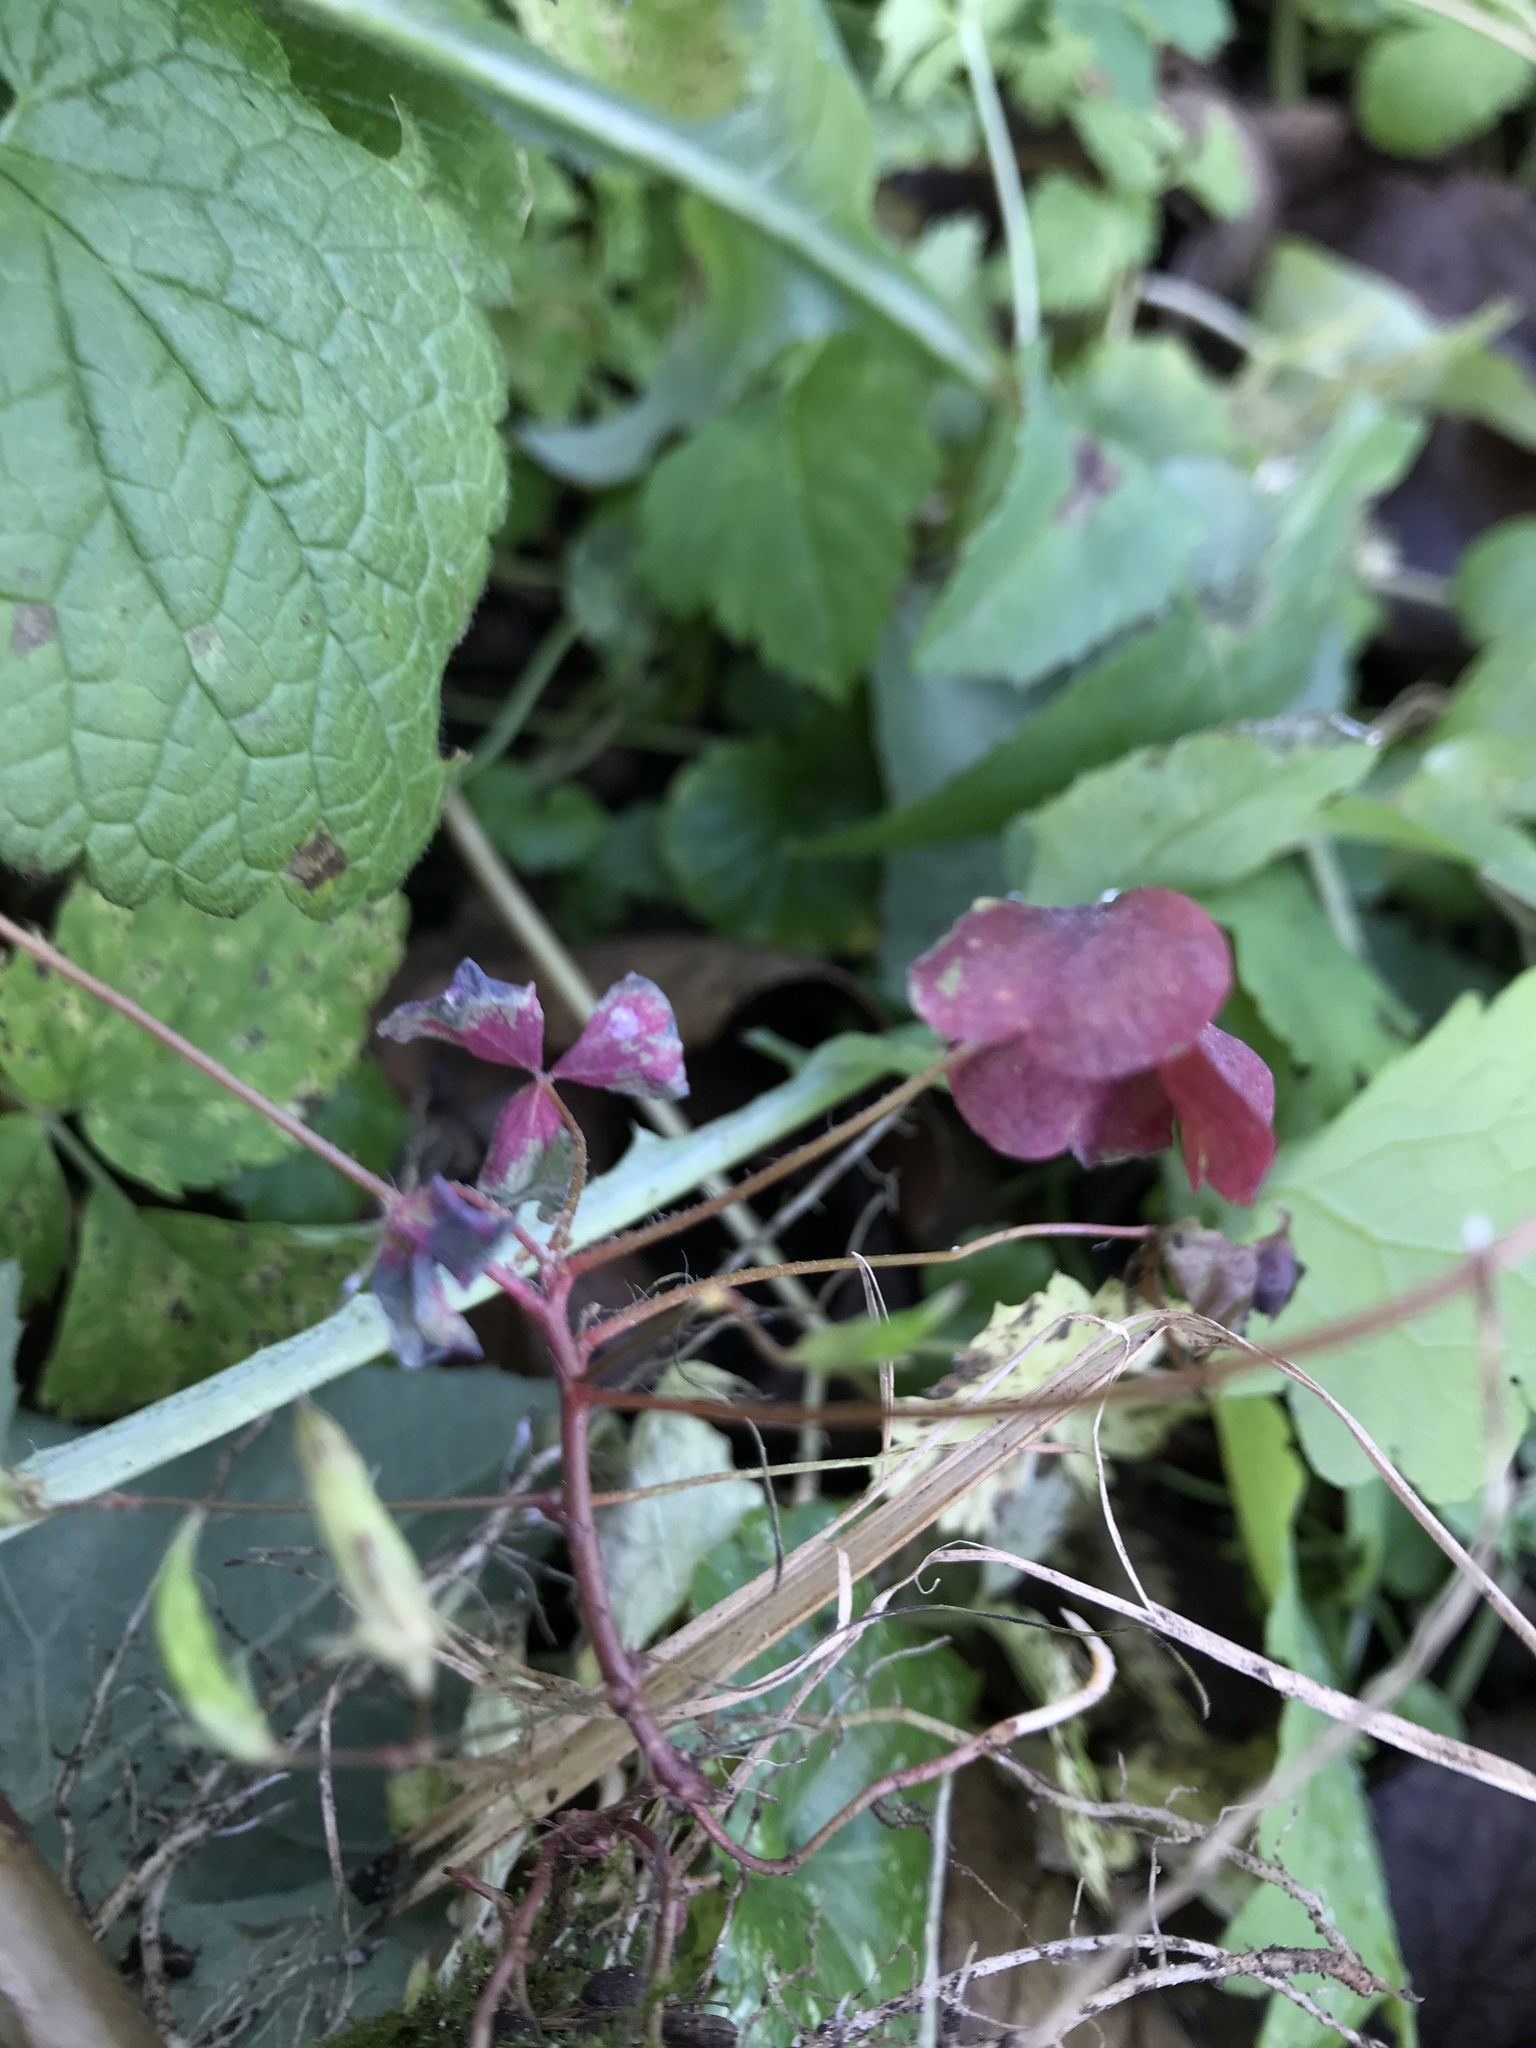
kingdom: Plantae
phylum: Tracheophyta
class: Magnoliopsida
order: Oxalidales
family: Oxalidaceae
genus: Oxalis
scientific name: Oxalis stricta
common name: Upright yellow-sorrel
